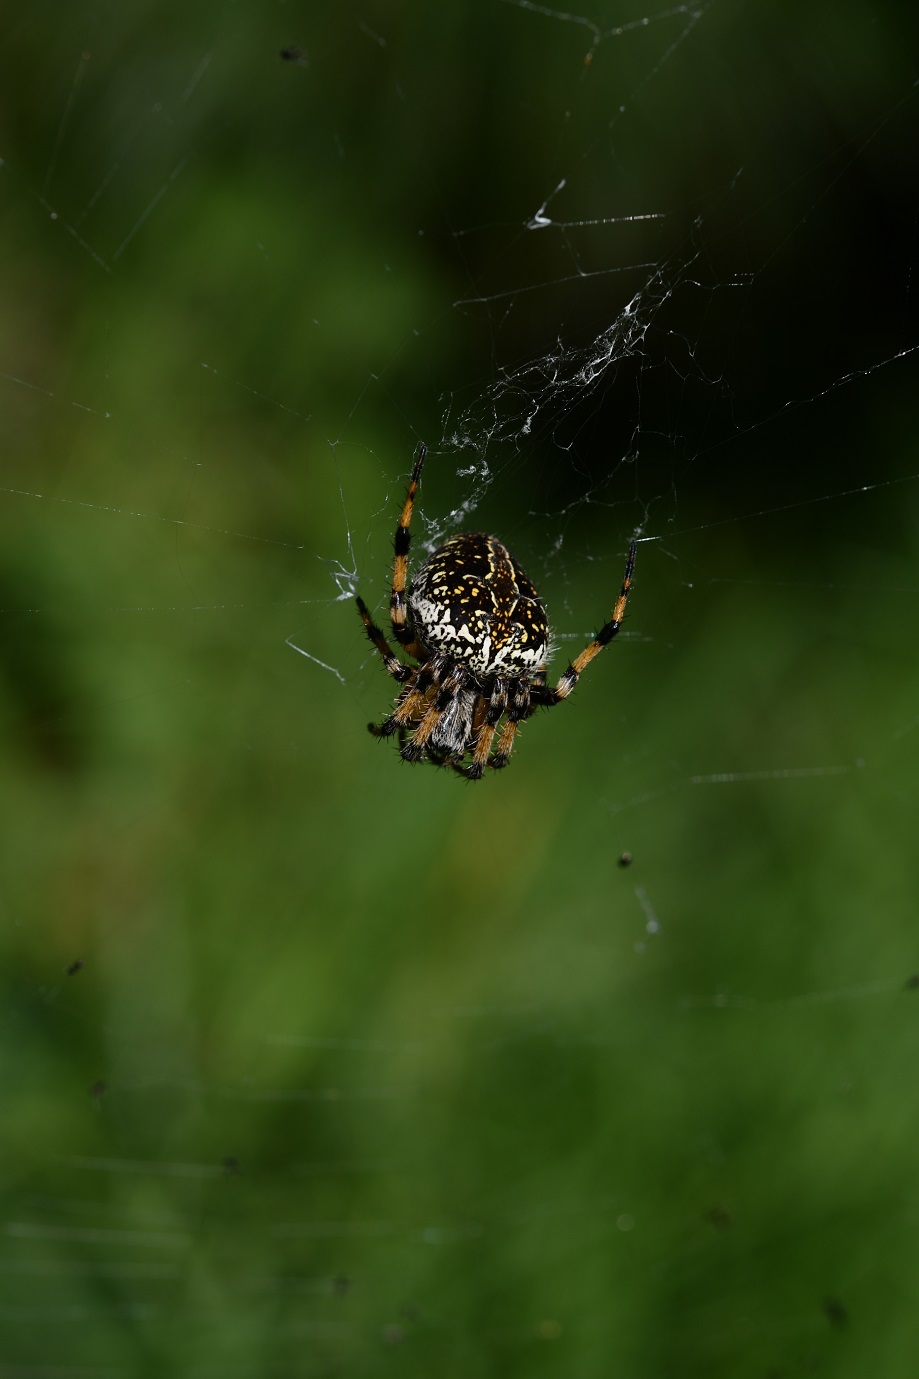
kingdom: Animalia
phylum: Arthropoda
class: Arachnida
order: Araneae
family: Araneidae
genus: Neoscona
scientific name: Neoscona orizabensis
